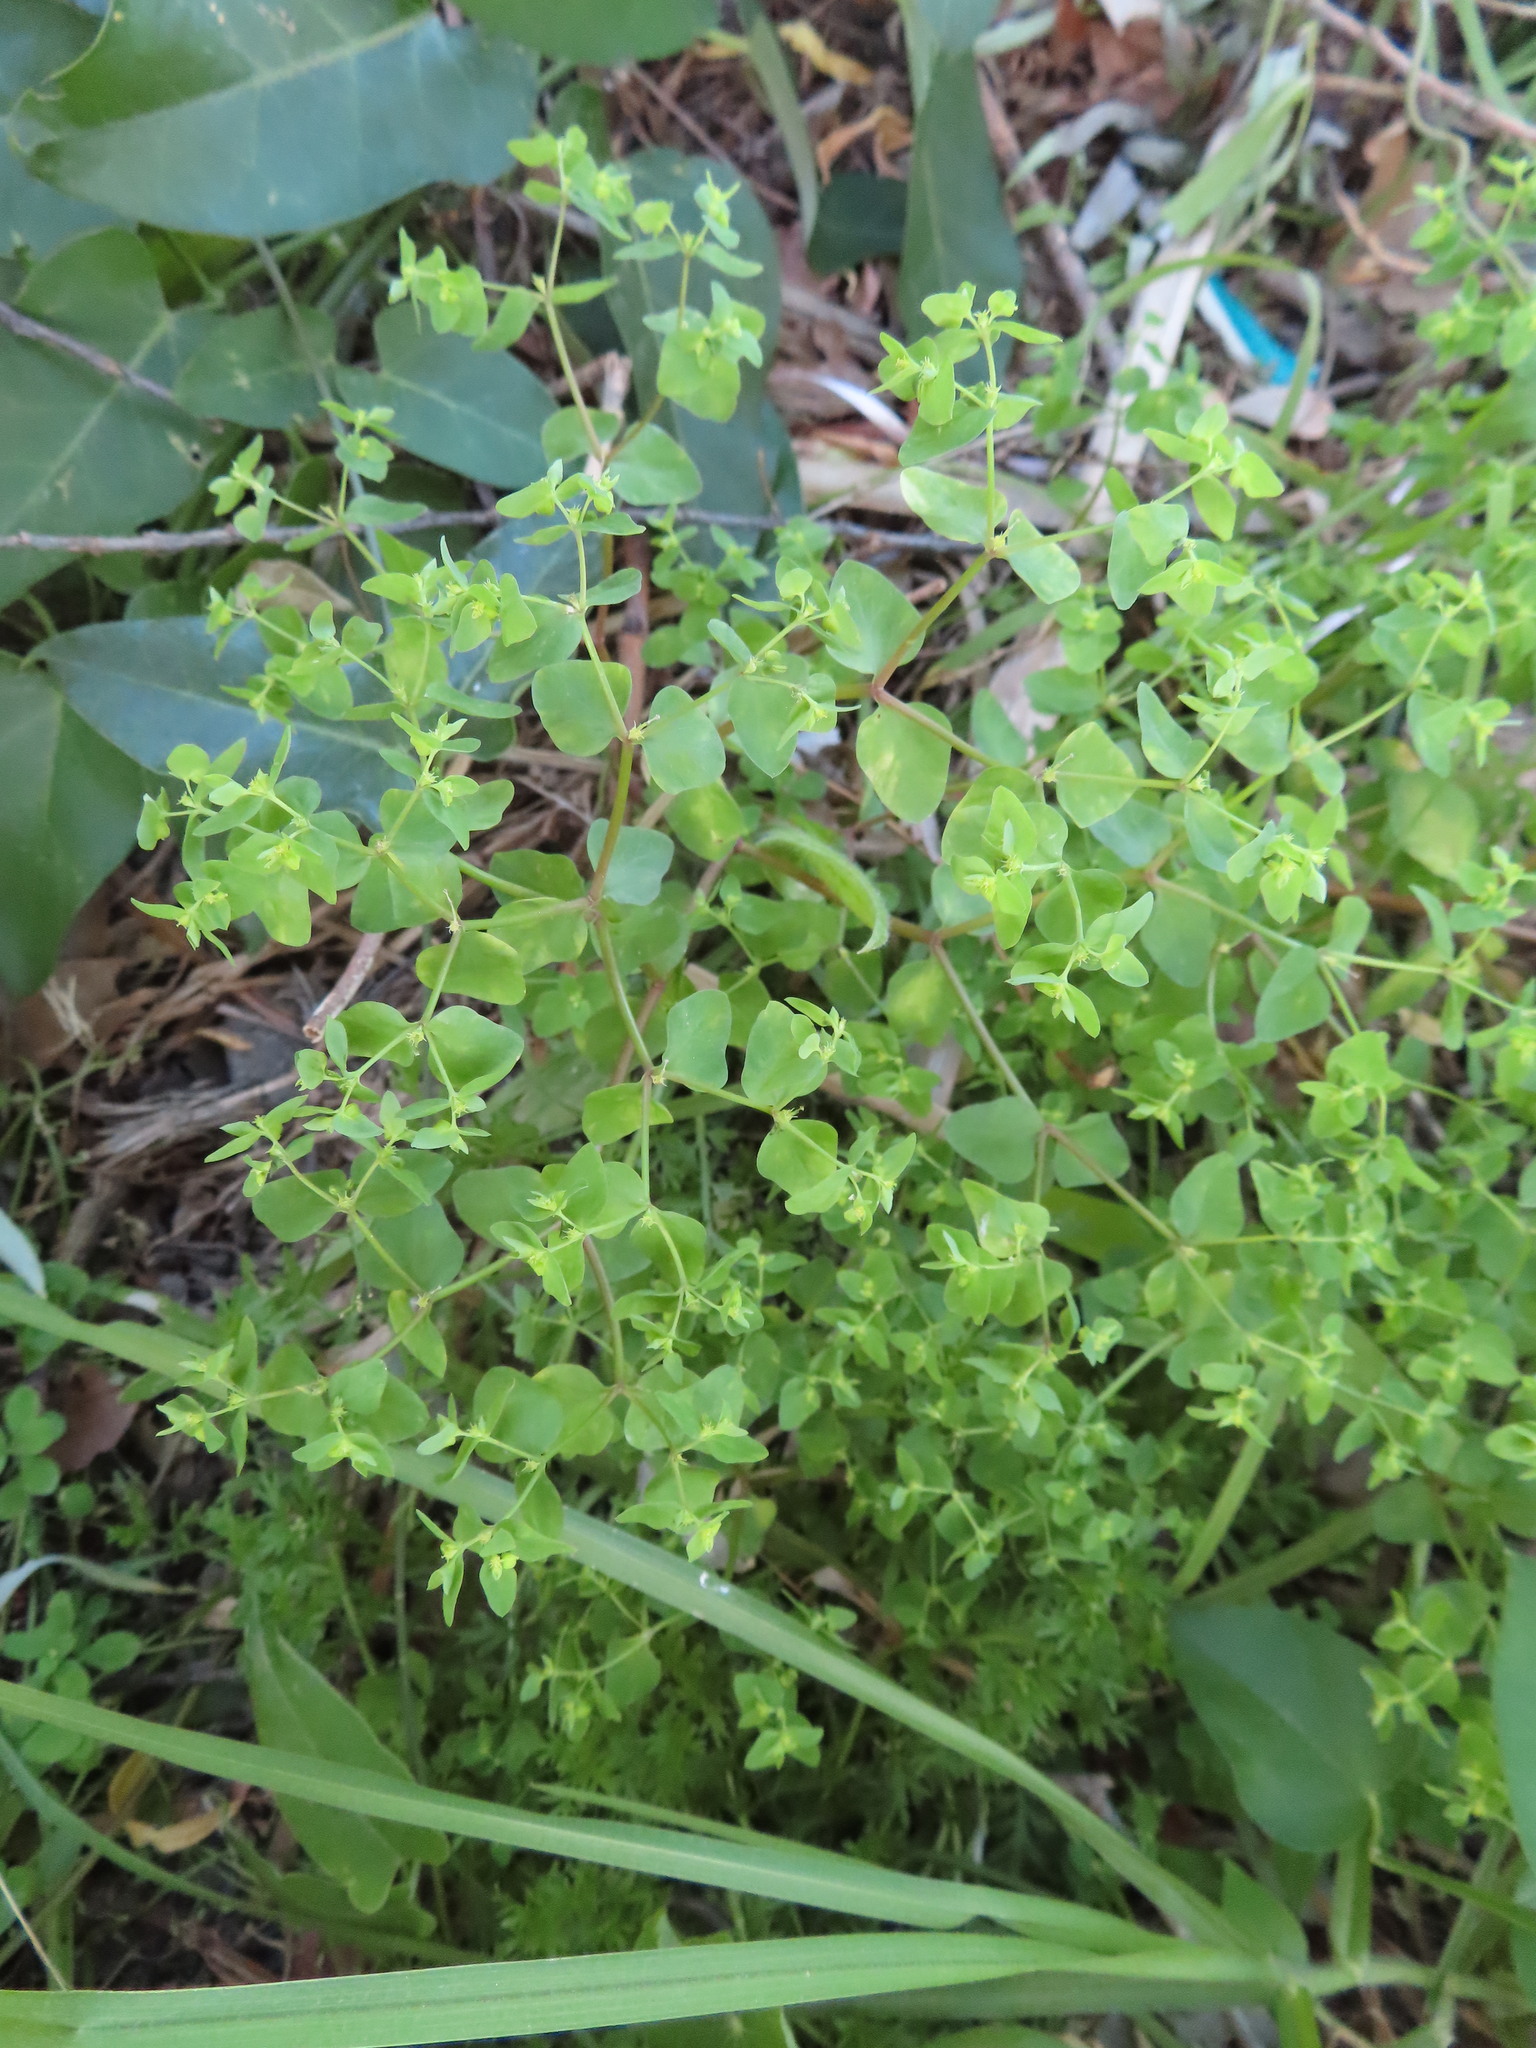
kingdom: Plantae
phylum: Tracheophyta
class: Magnoliopsida
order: Malpighiales
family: Euphorbiaceae
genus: Euphorbia
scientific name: Euphorbia peplus
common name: Petty spurge
